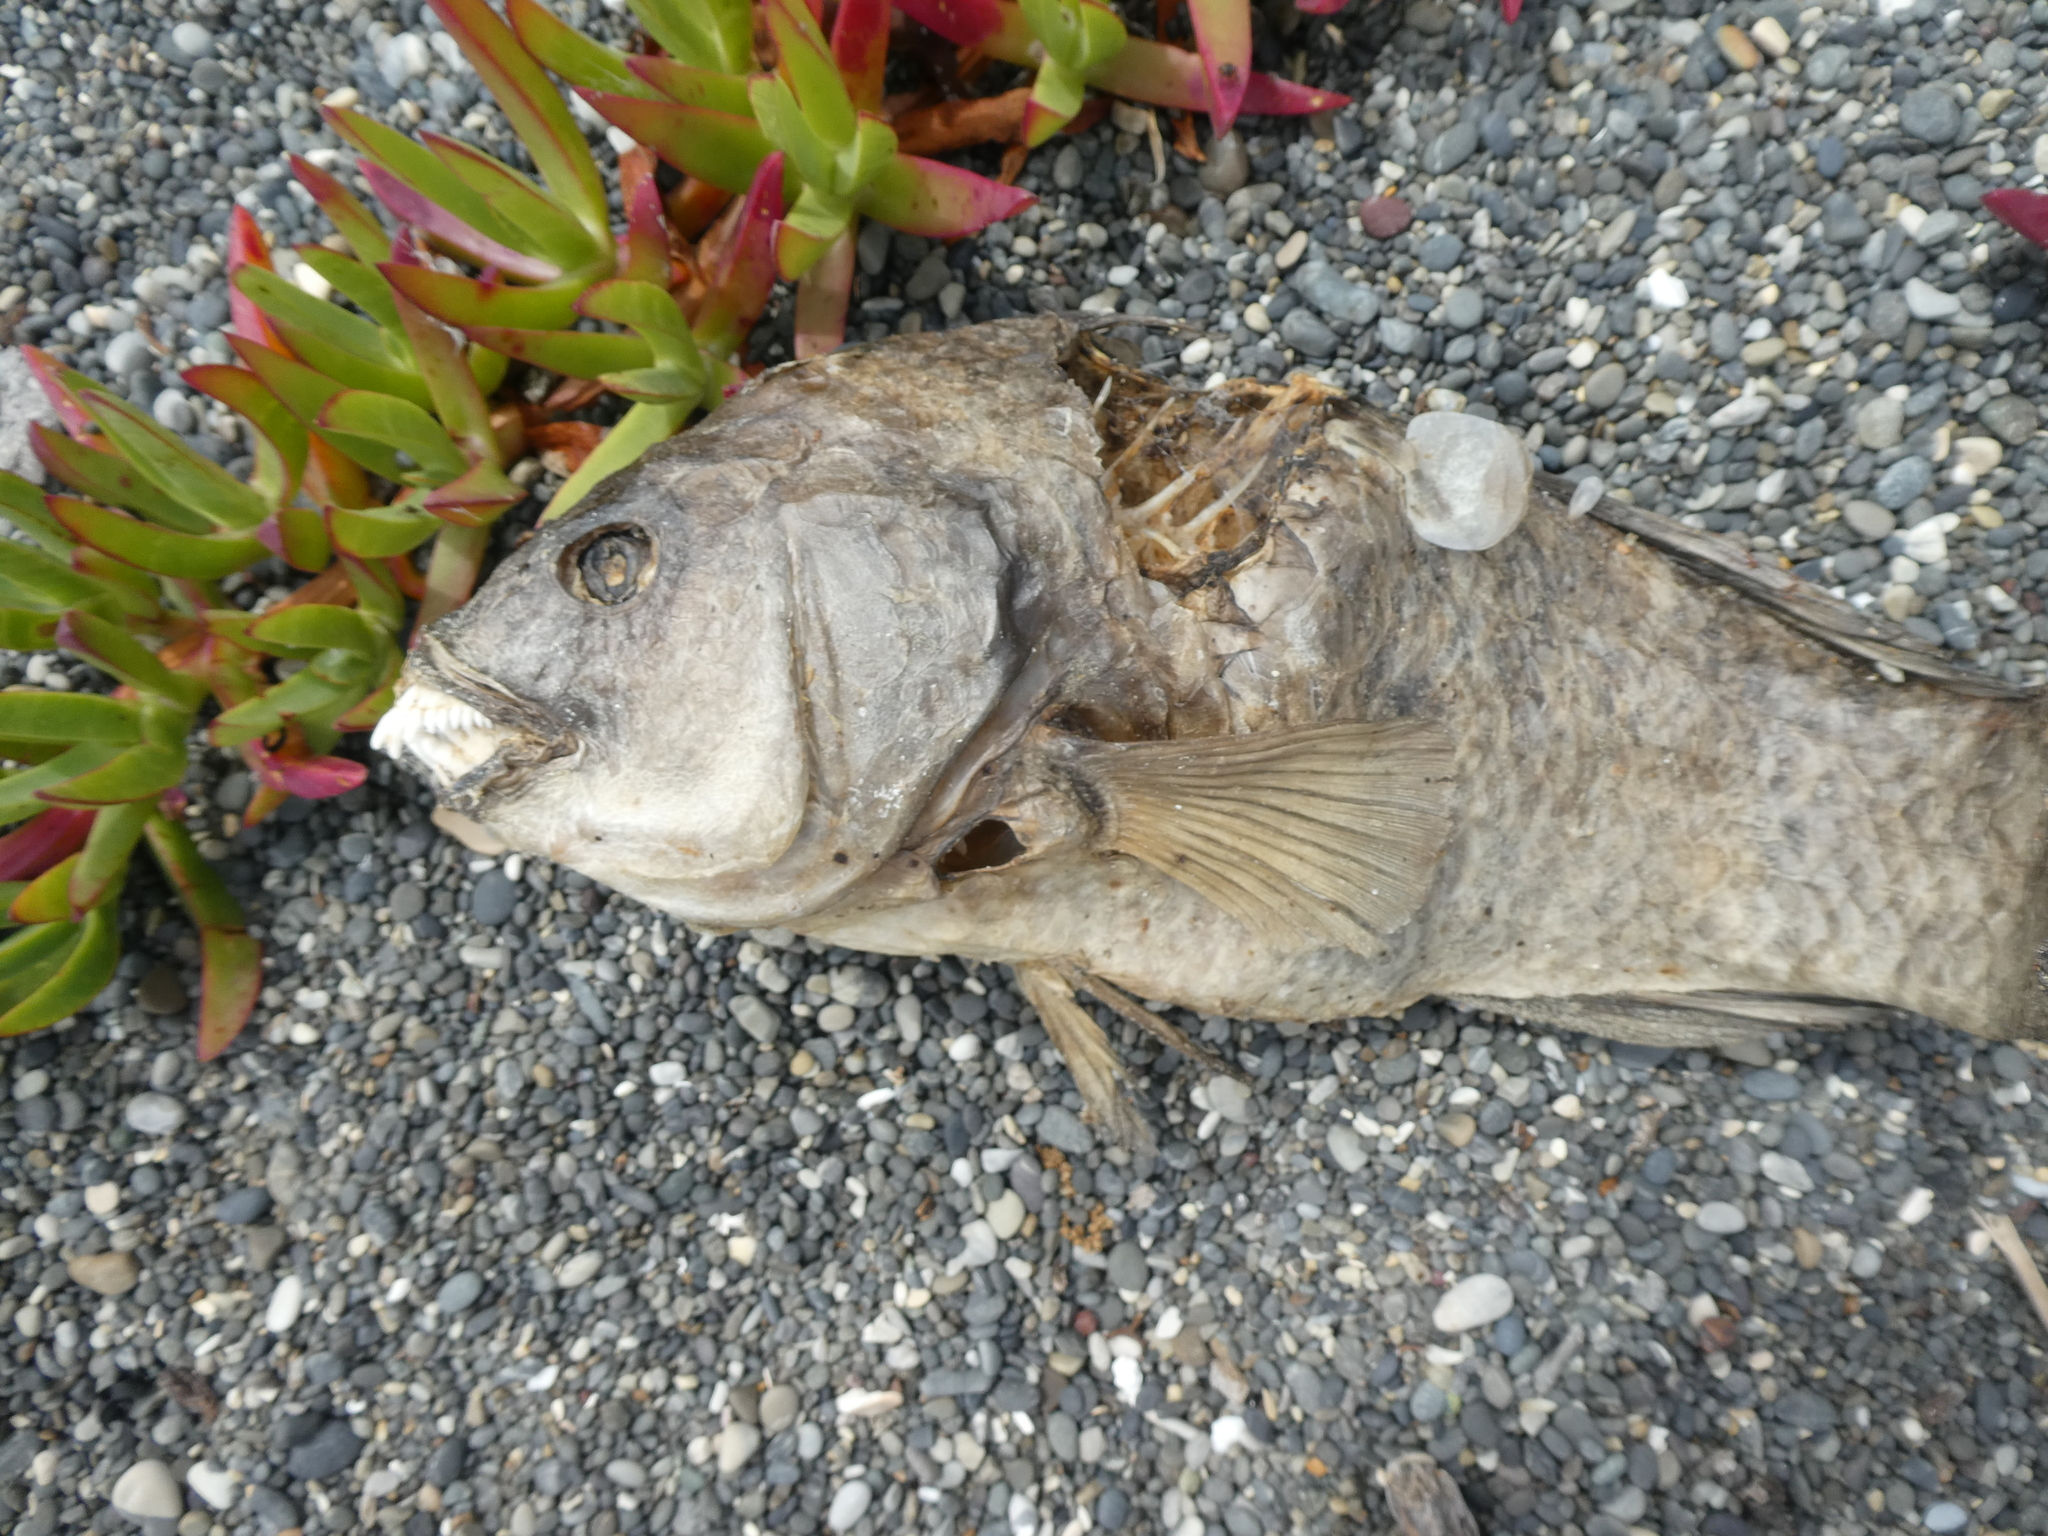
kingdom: Animalia
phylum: Chordata
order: Perciformes
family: Labridae
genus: Notolabrus
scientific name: Notolabrus fucicola
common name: Banded parrotfish
